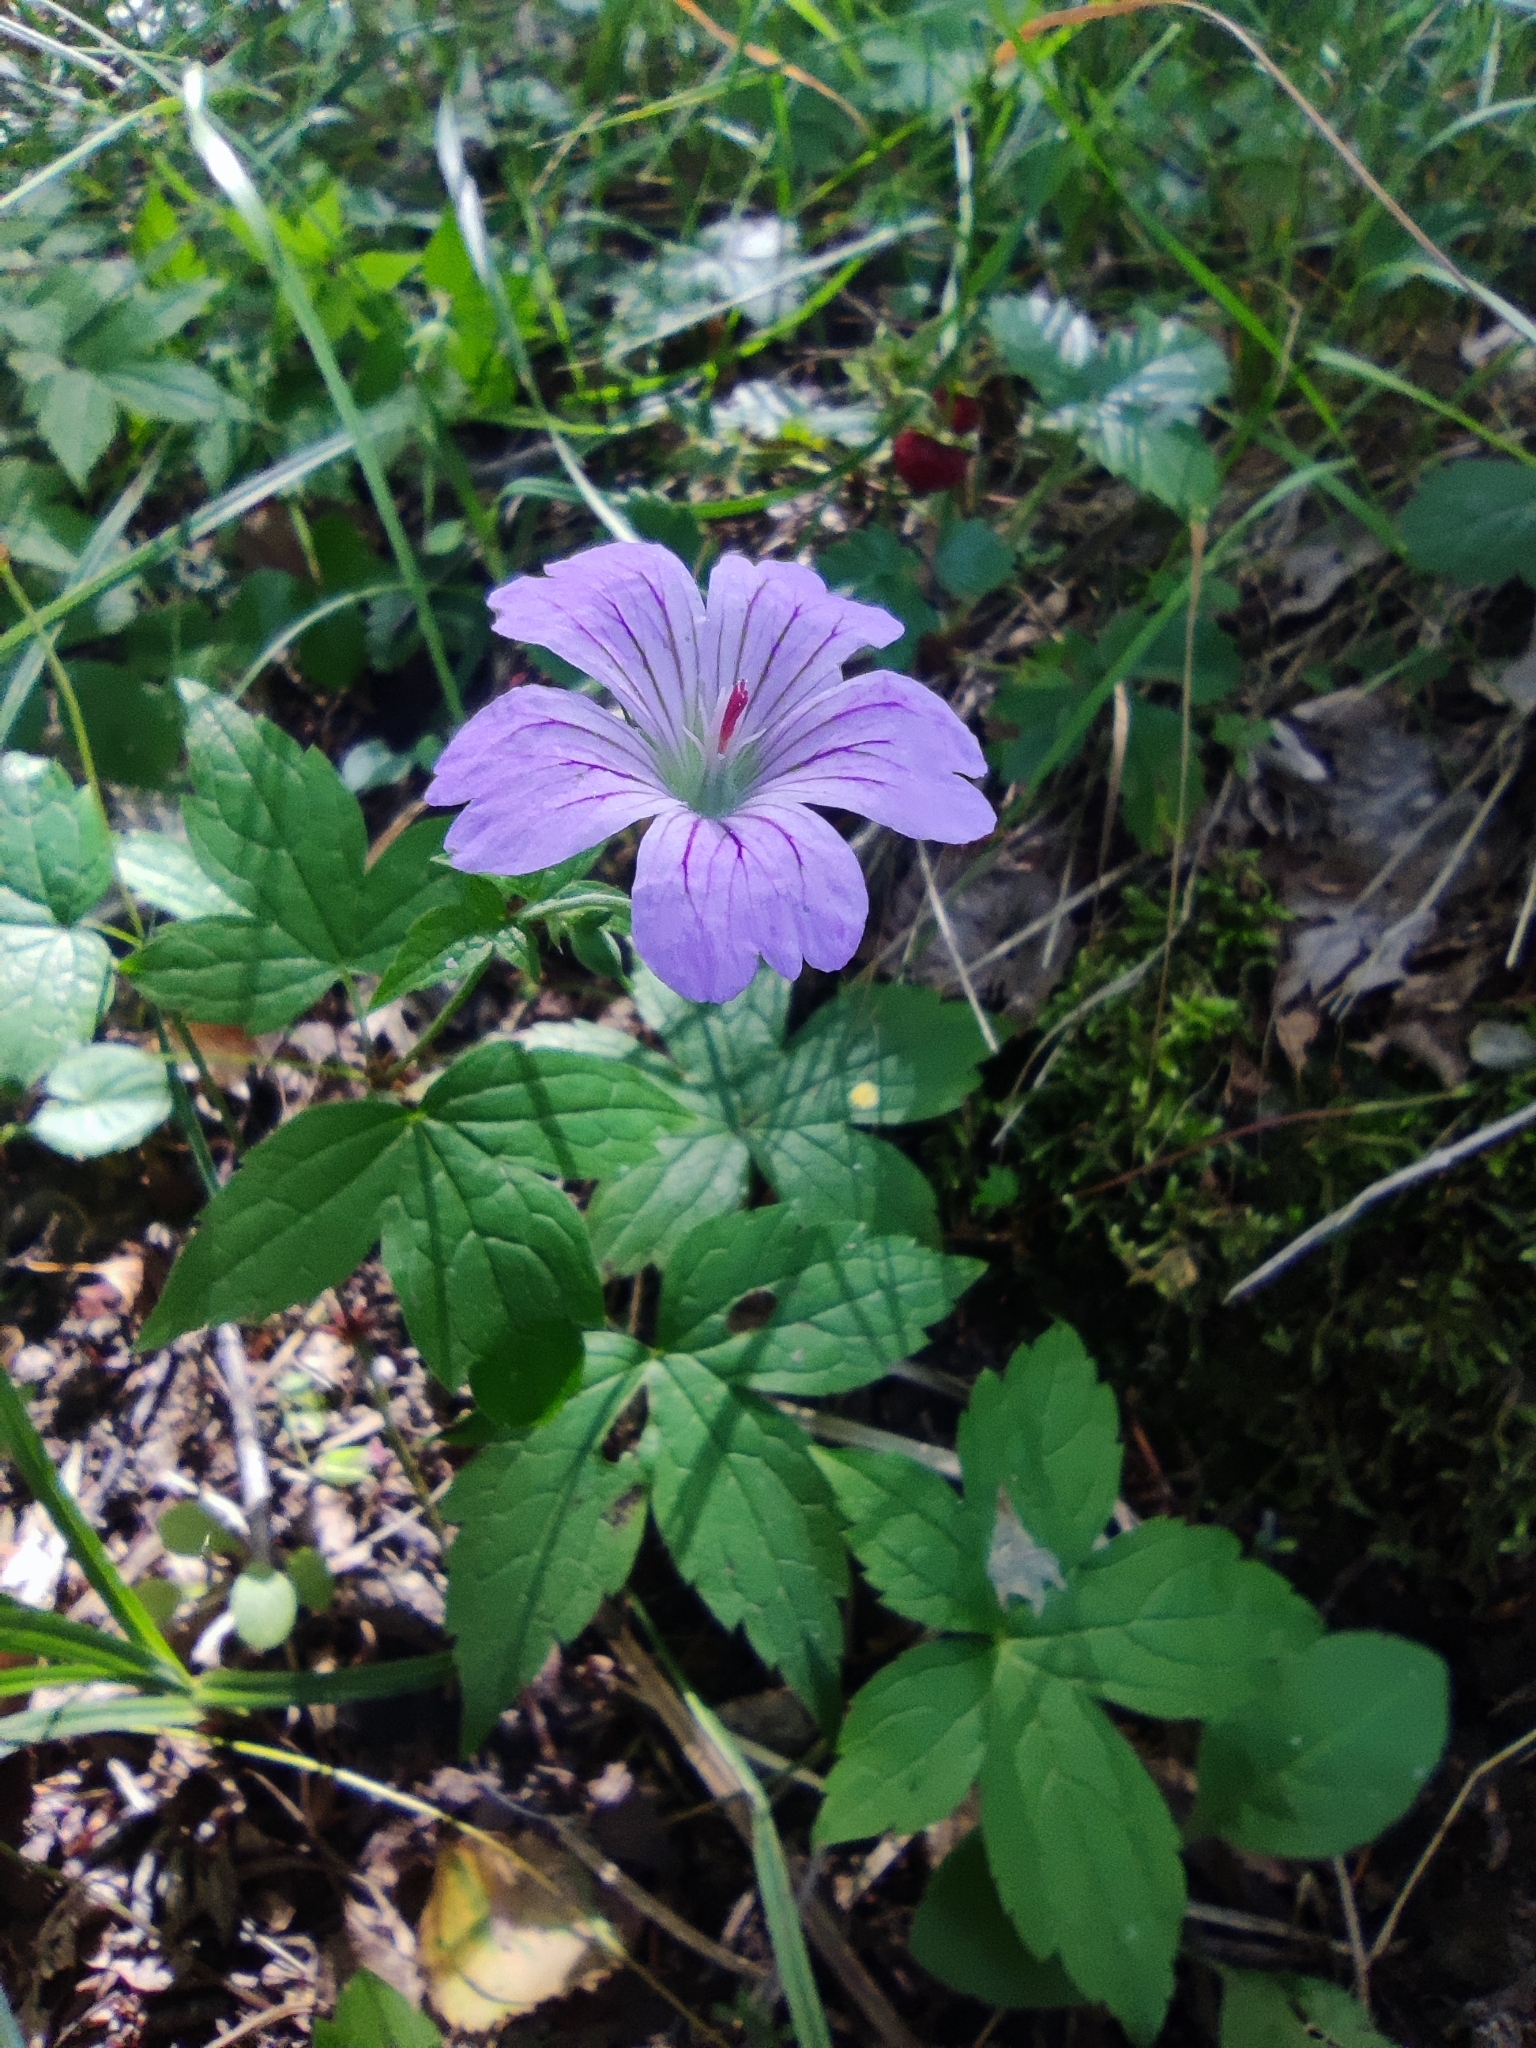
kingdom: Plantae
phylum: Tracheophyta
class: Magnoliopsida
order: Geraniales
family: Geraniaceae
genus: Geranium
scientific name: Geranium nodosum
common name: Knotted crane's-bill
